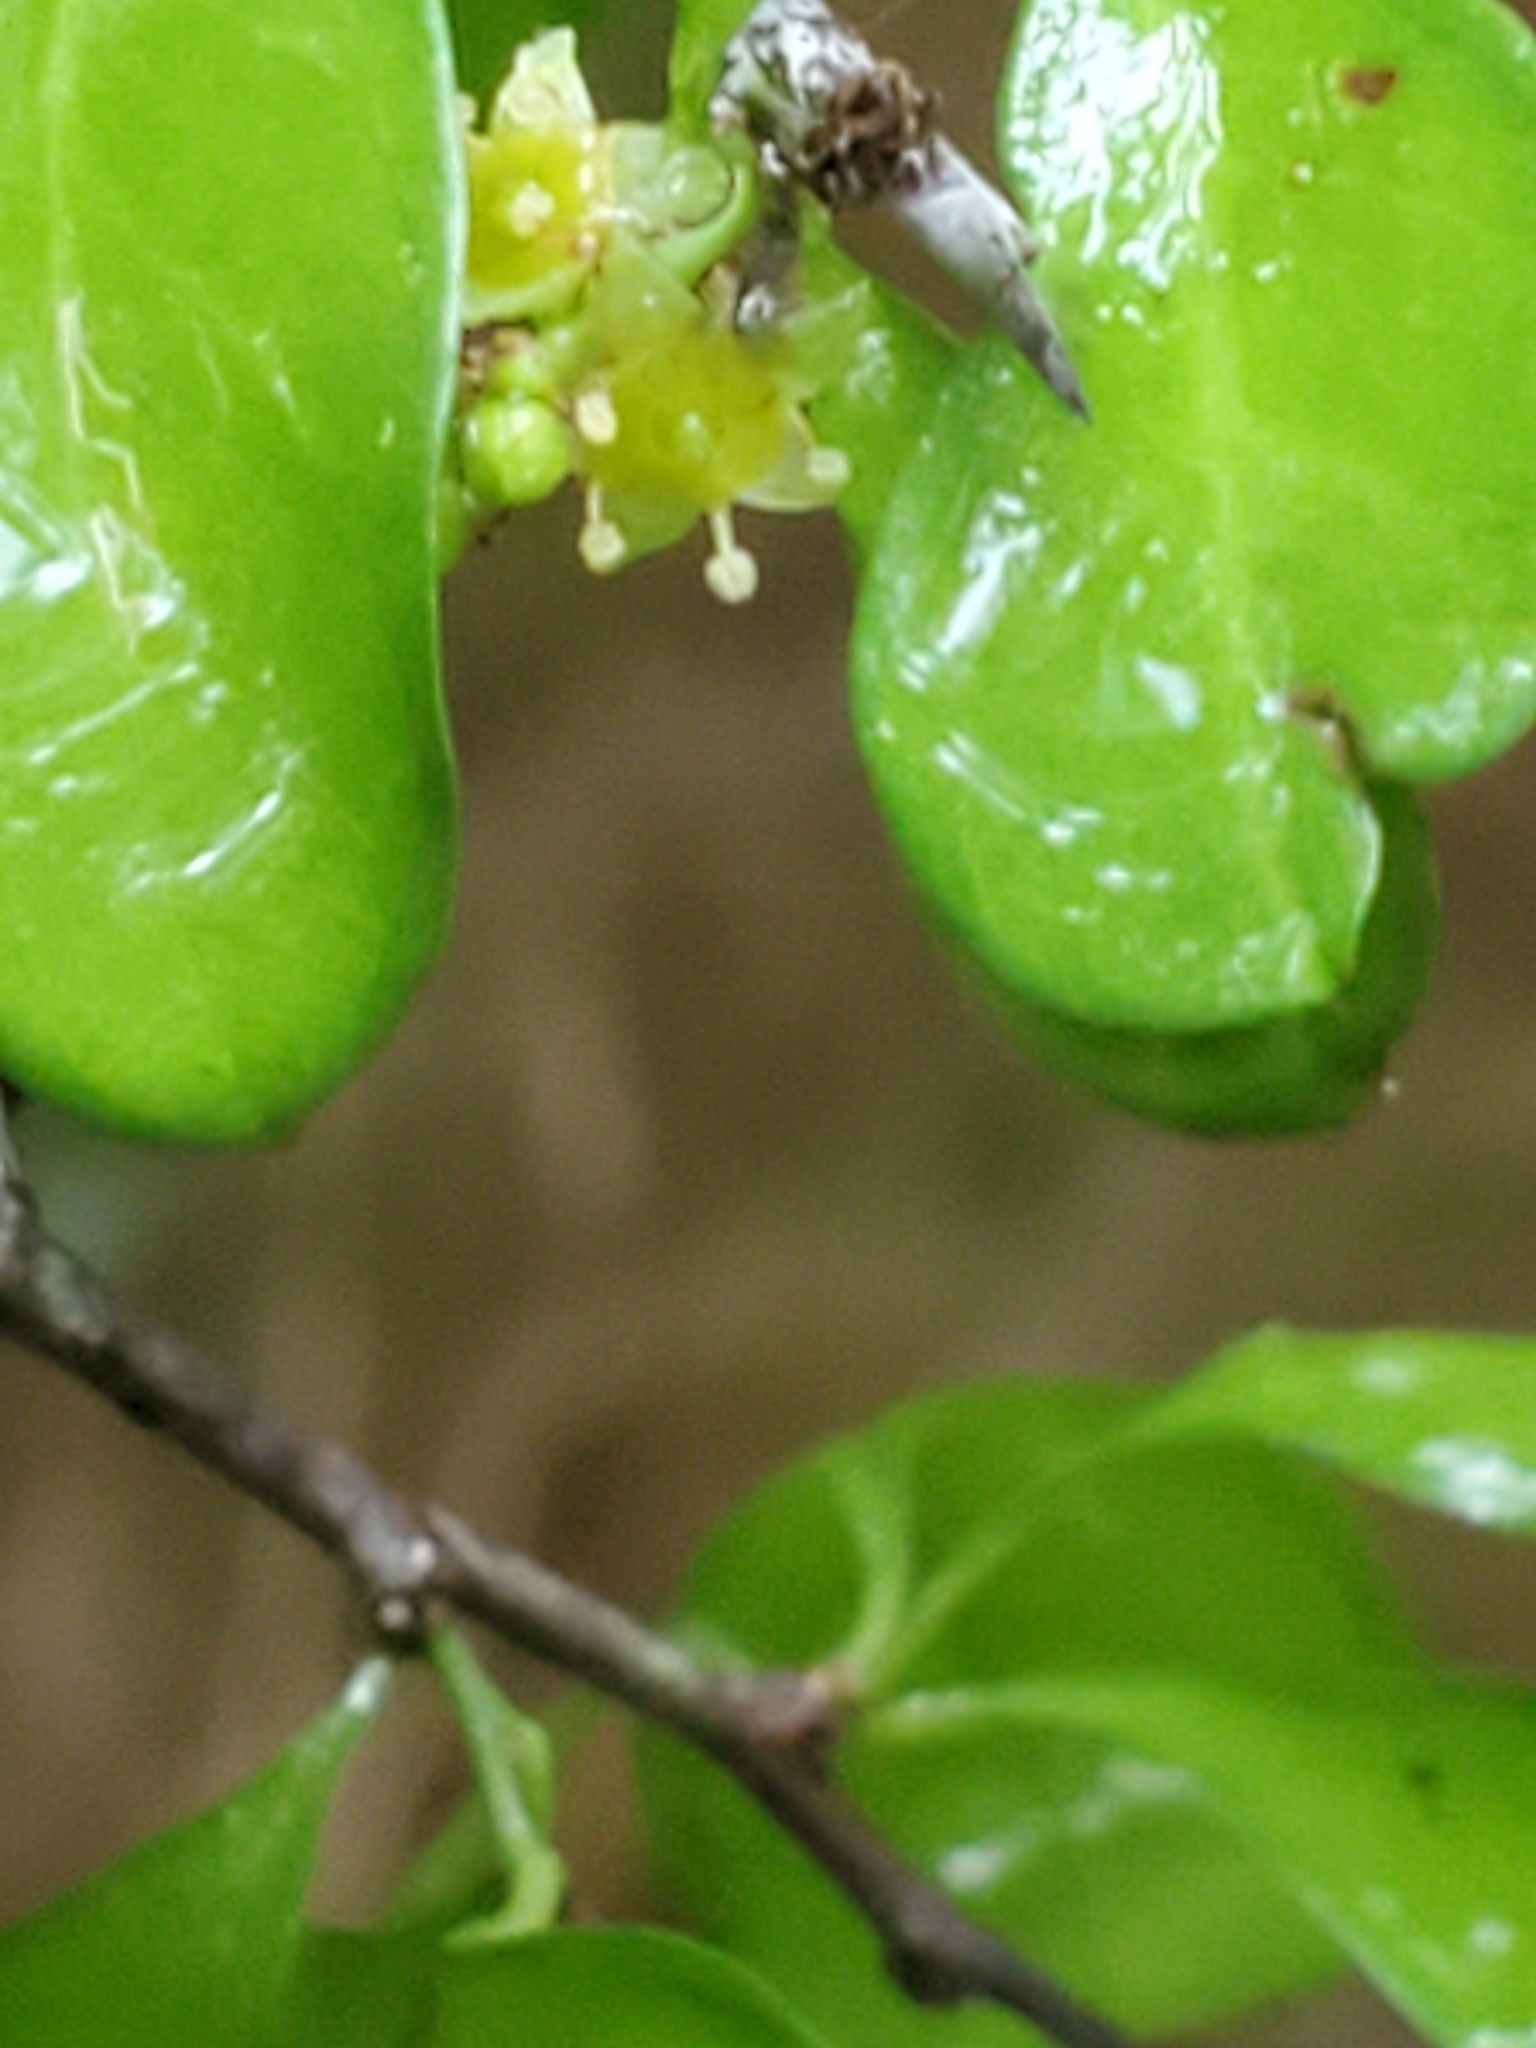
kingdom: Plantae
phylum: Tracheophyta
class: Magnoliopsida
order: Ericales
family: Sapotaceae
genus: Sideroxylon
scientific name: Sideroxylon lanuginosum
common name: Chittamwood
